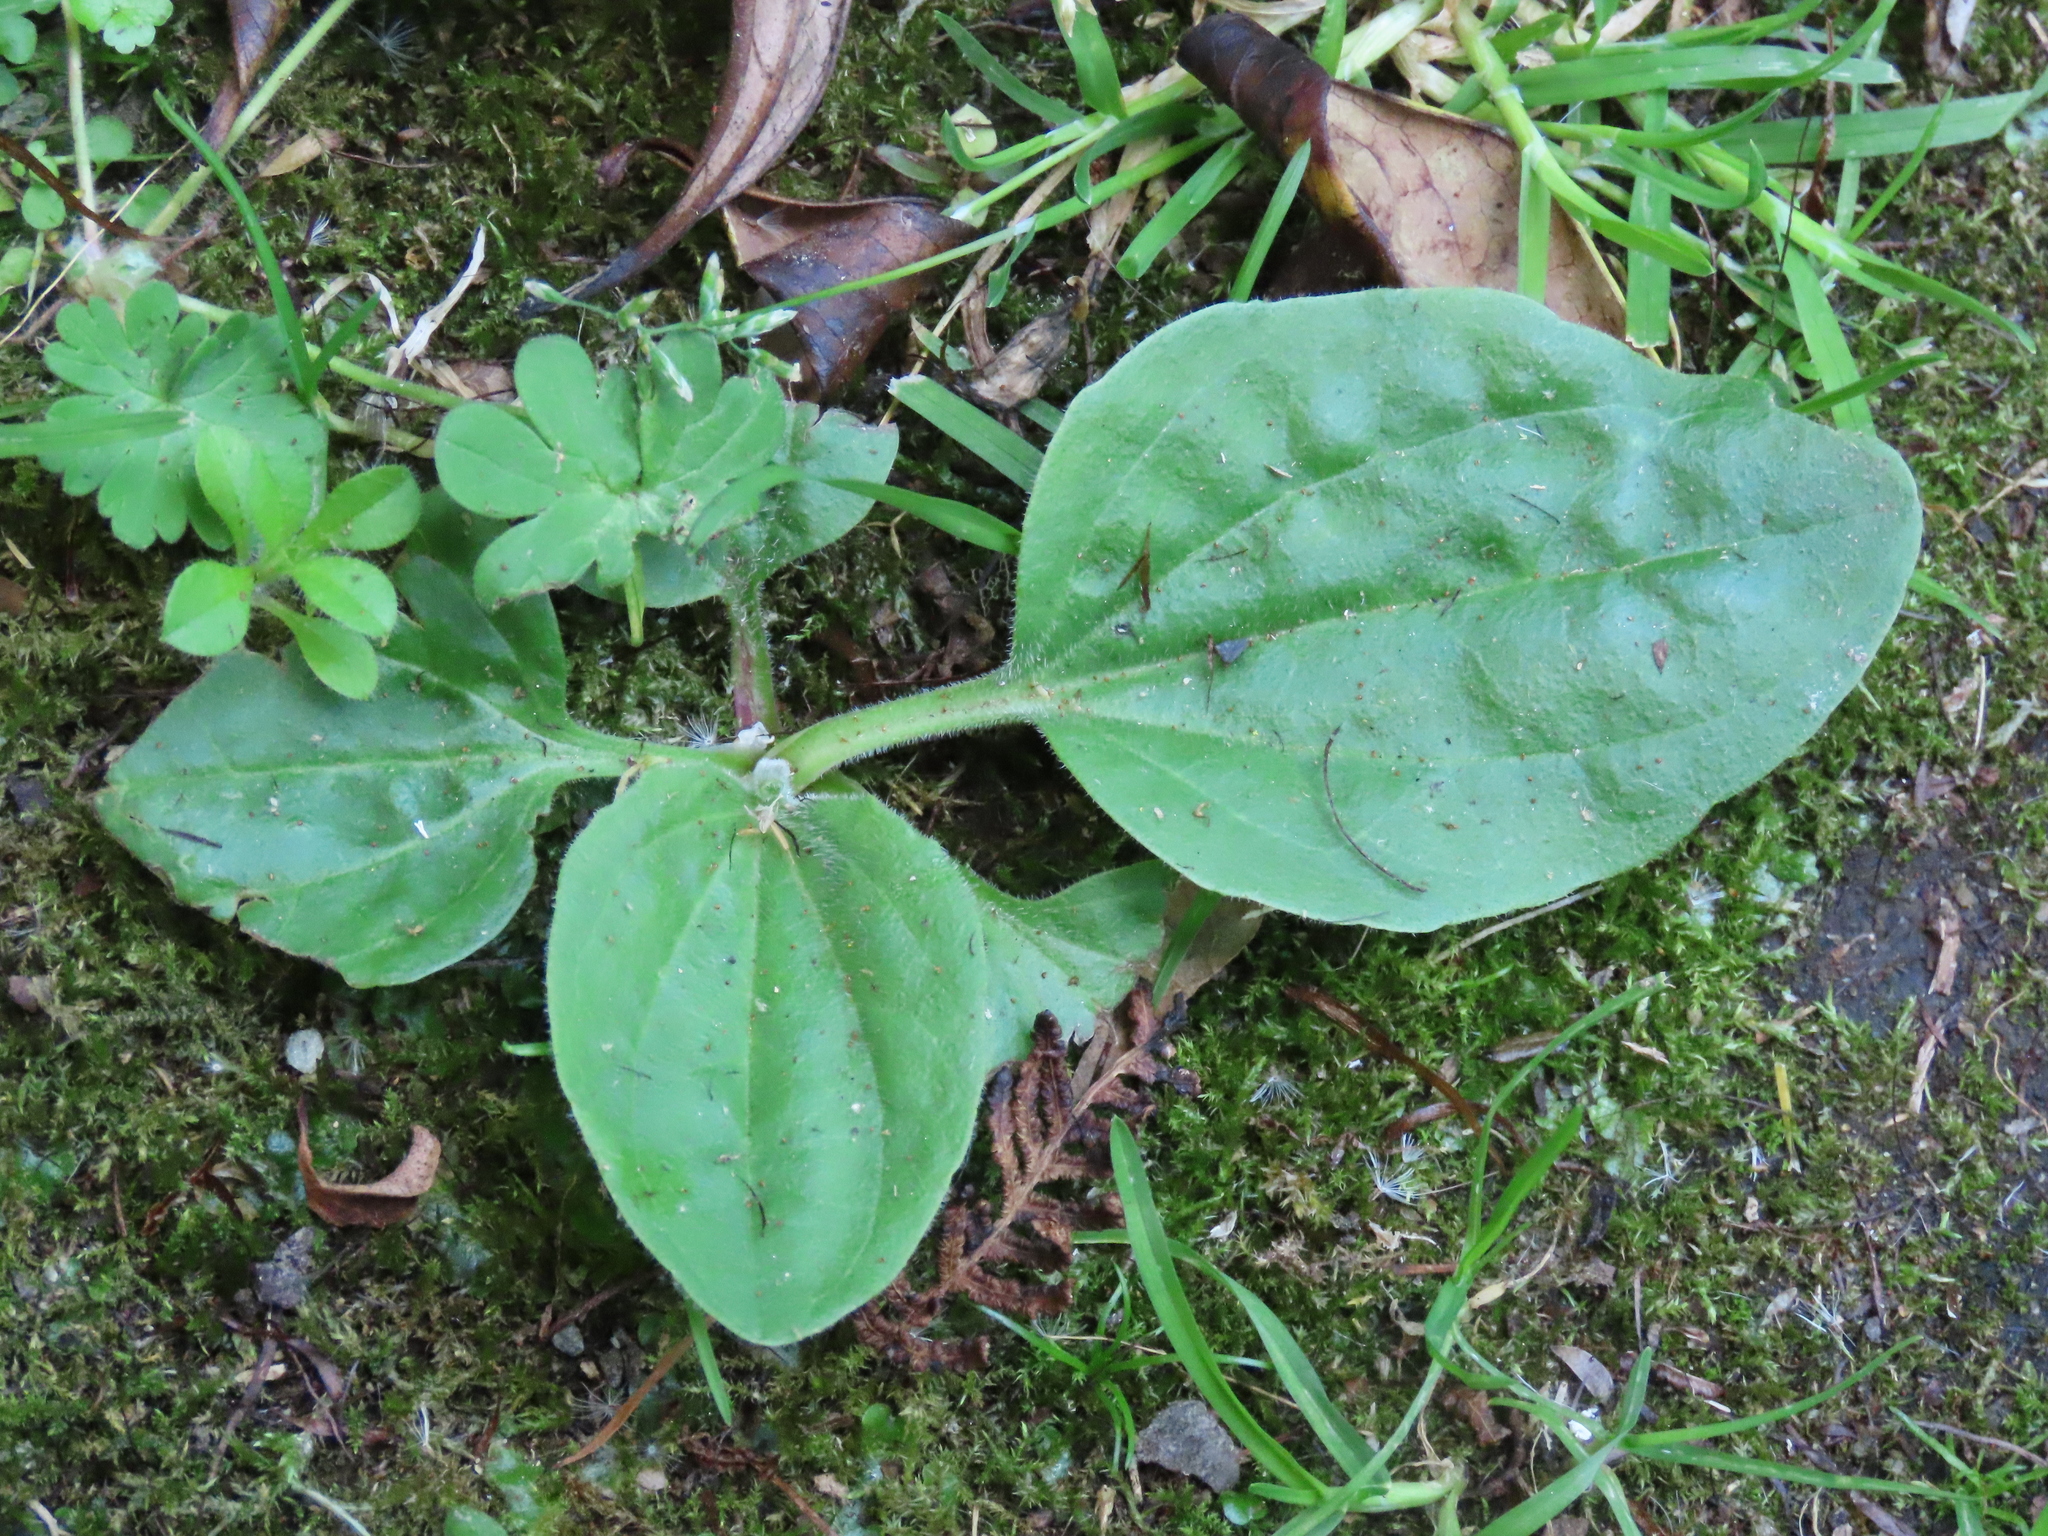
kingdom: Plantae
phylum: Tracheophyta
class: Magnoliopsida
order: Lamiales
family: Plantaginaceae
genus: Plantago
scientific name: Plantago major
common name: Common plantain
